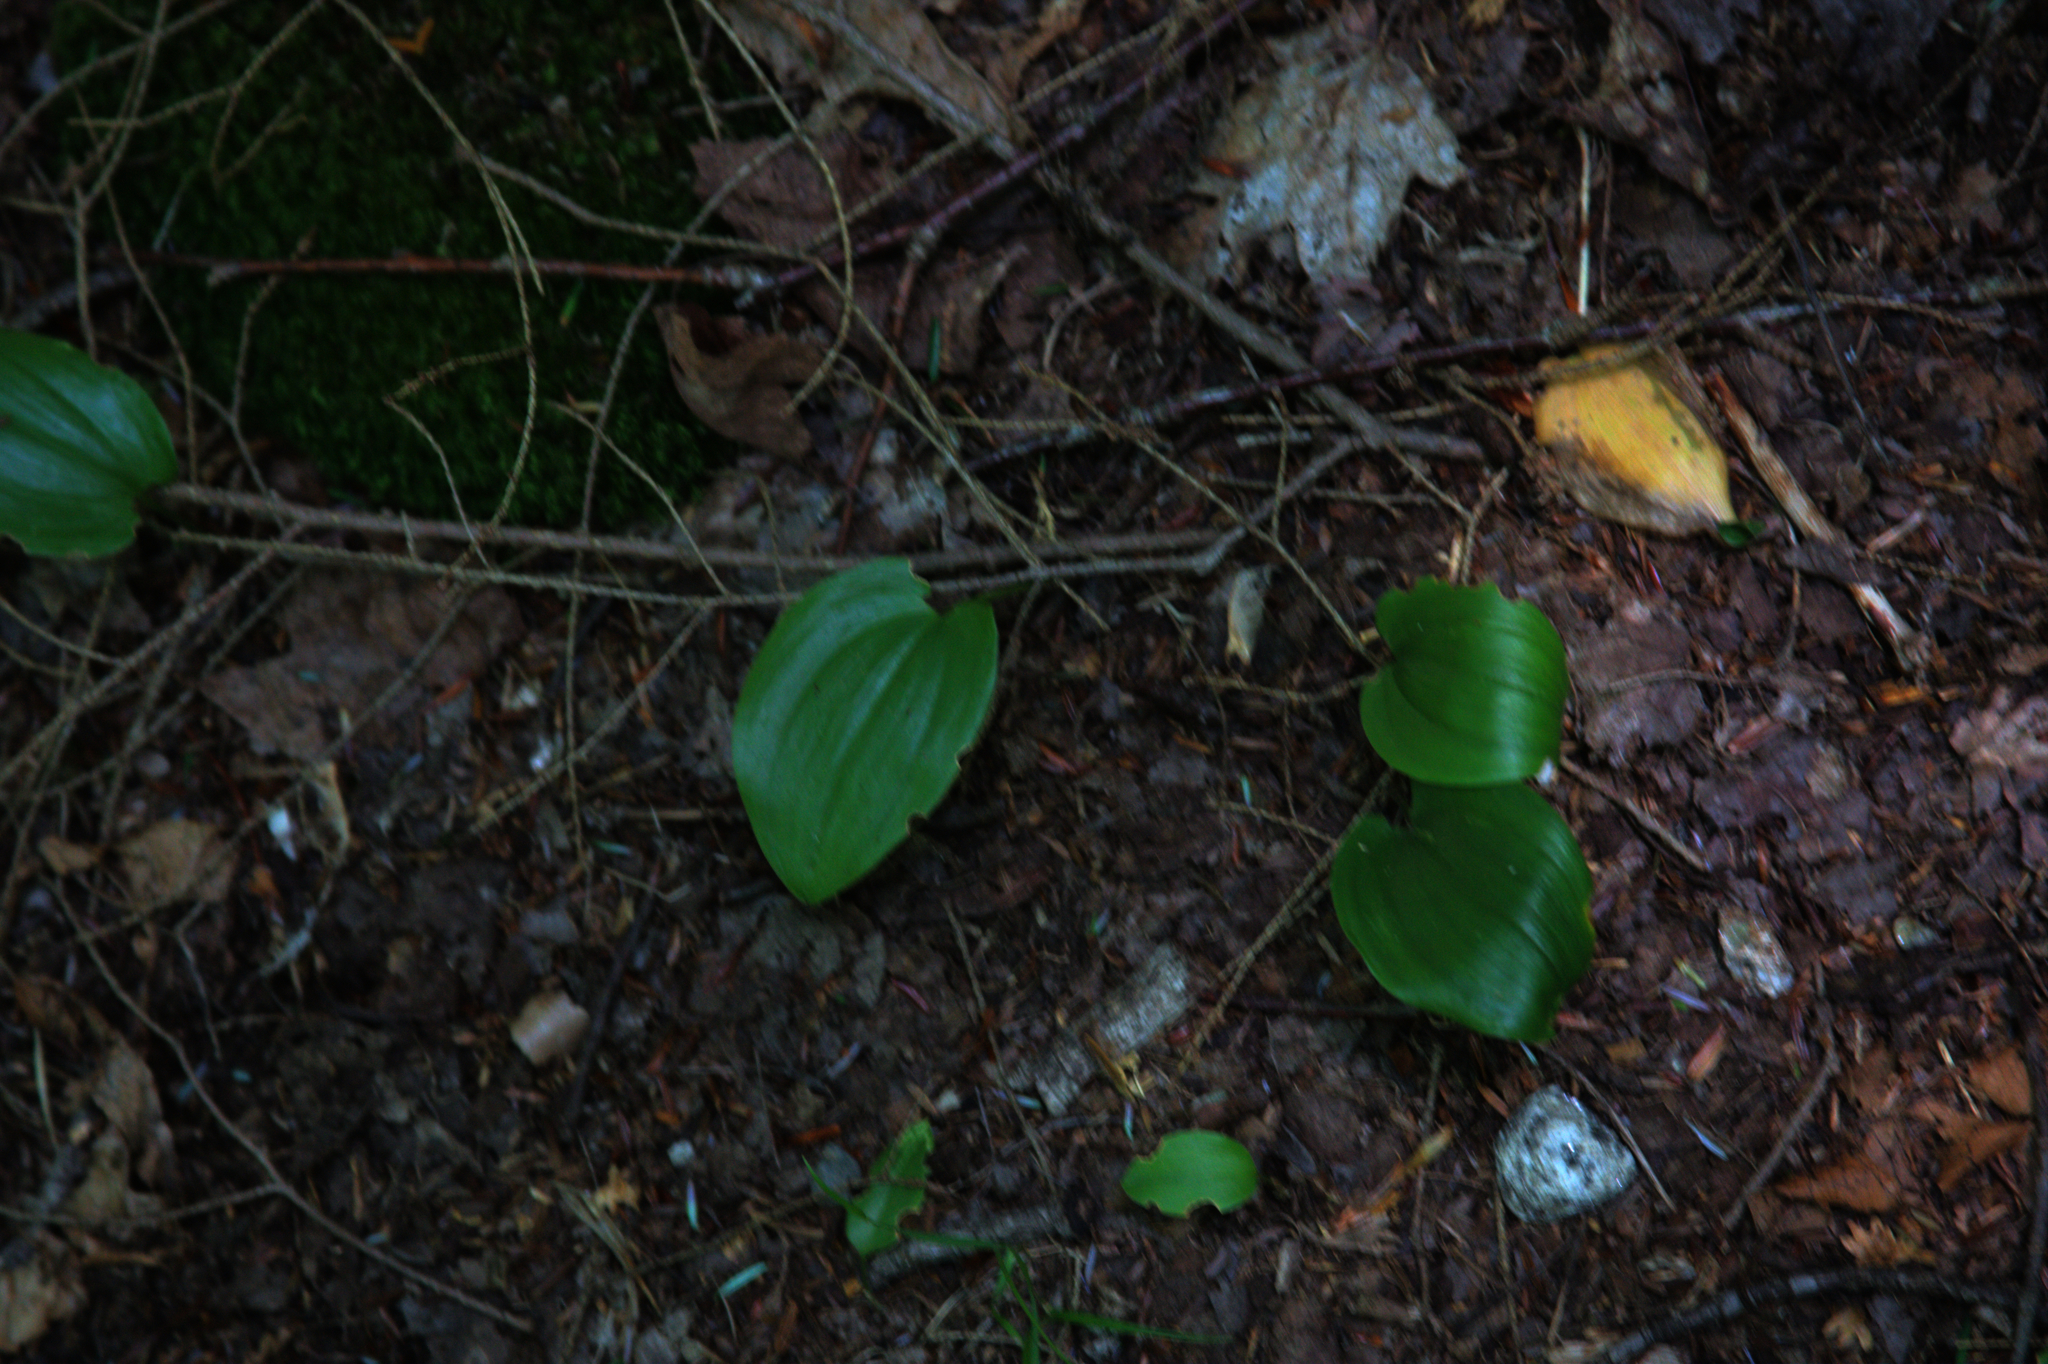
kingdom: Plantae
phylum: Tracheophyta
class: Liliopsida
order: Asparagales
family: Asparagaceae
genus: Maianthemum
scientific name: Maianthemum canadense
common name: False lily-of-the-valley
